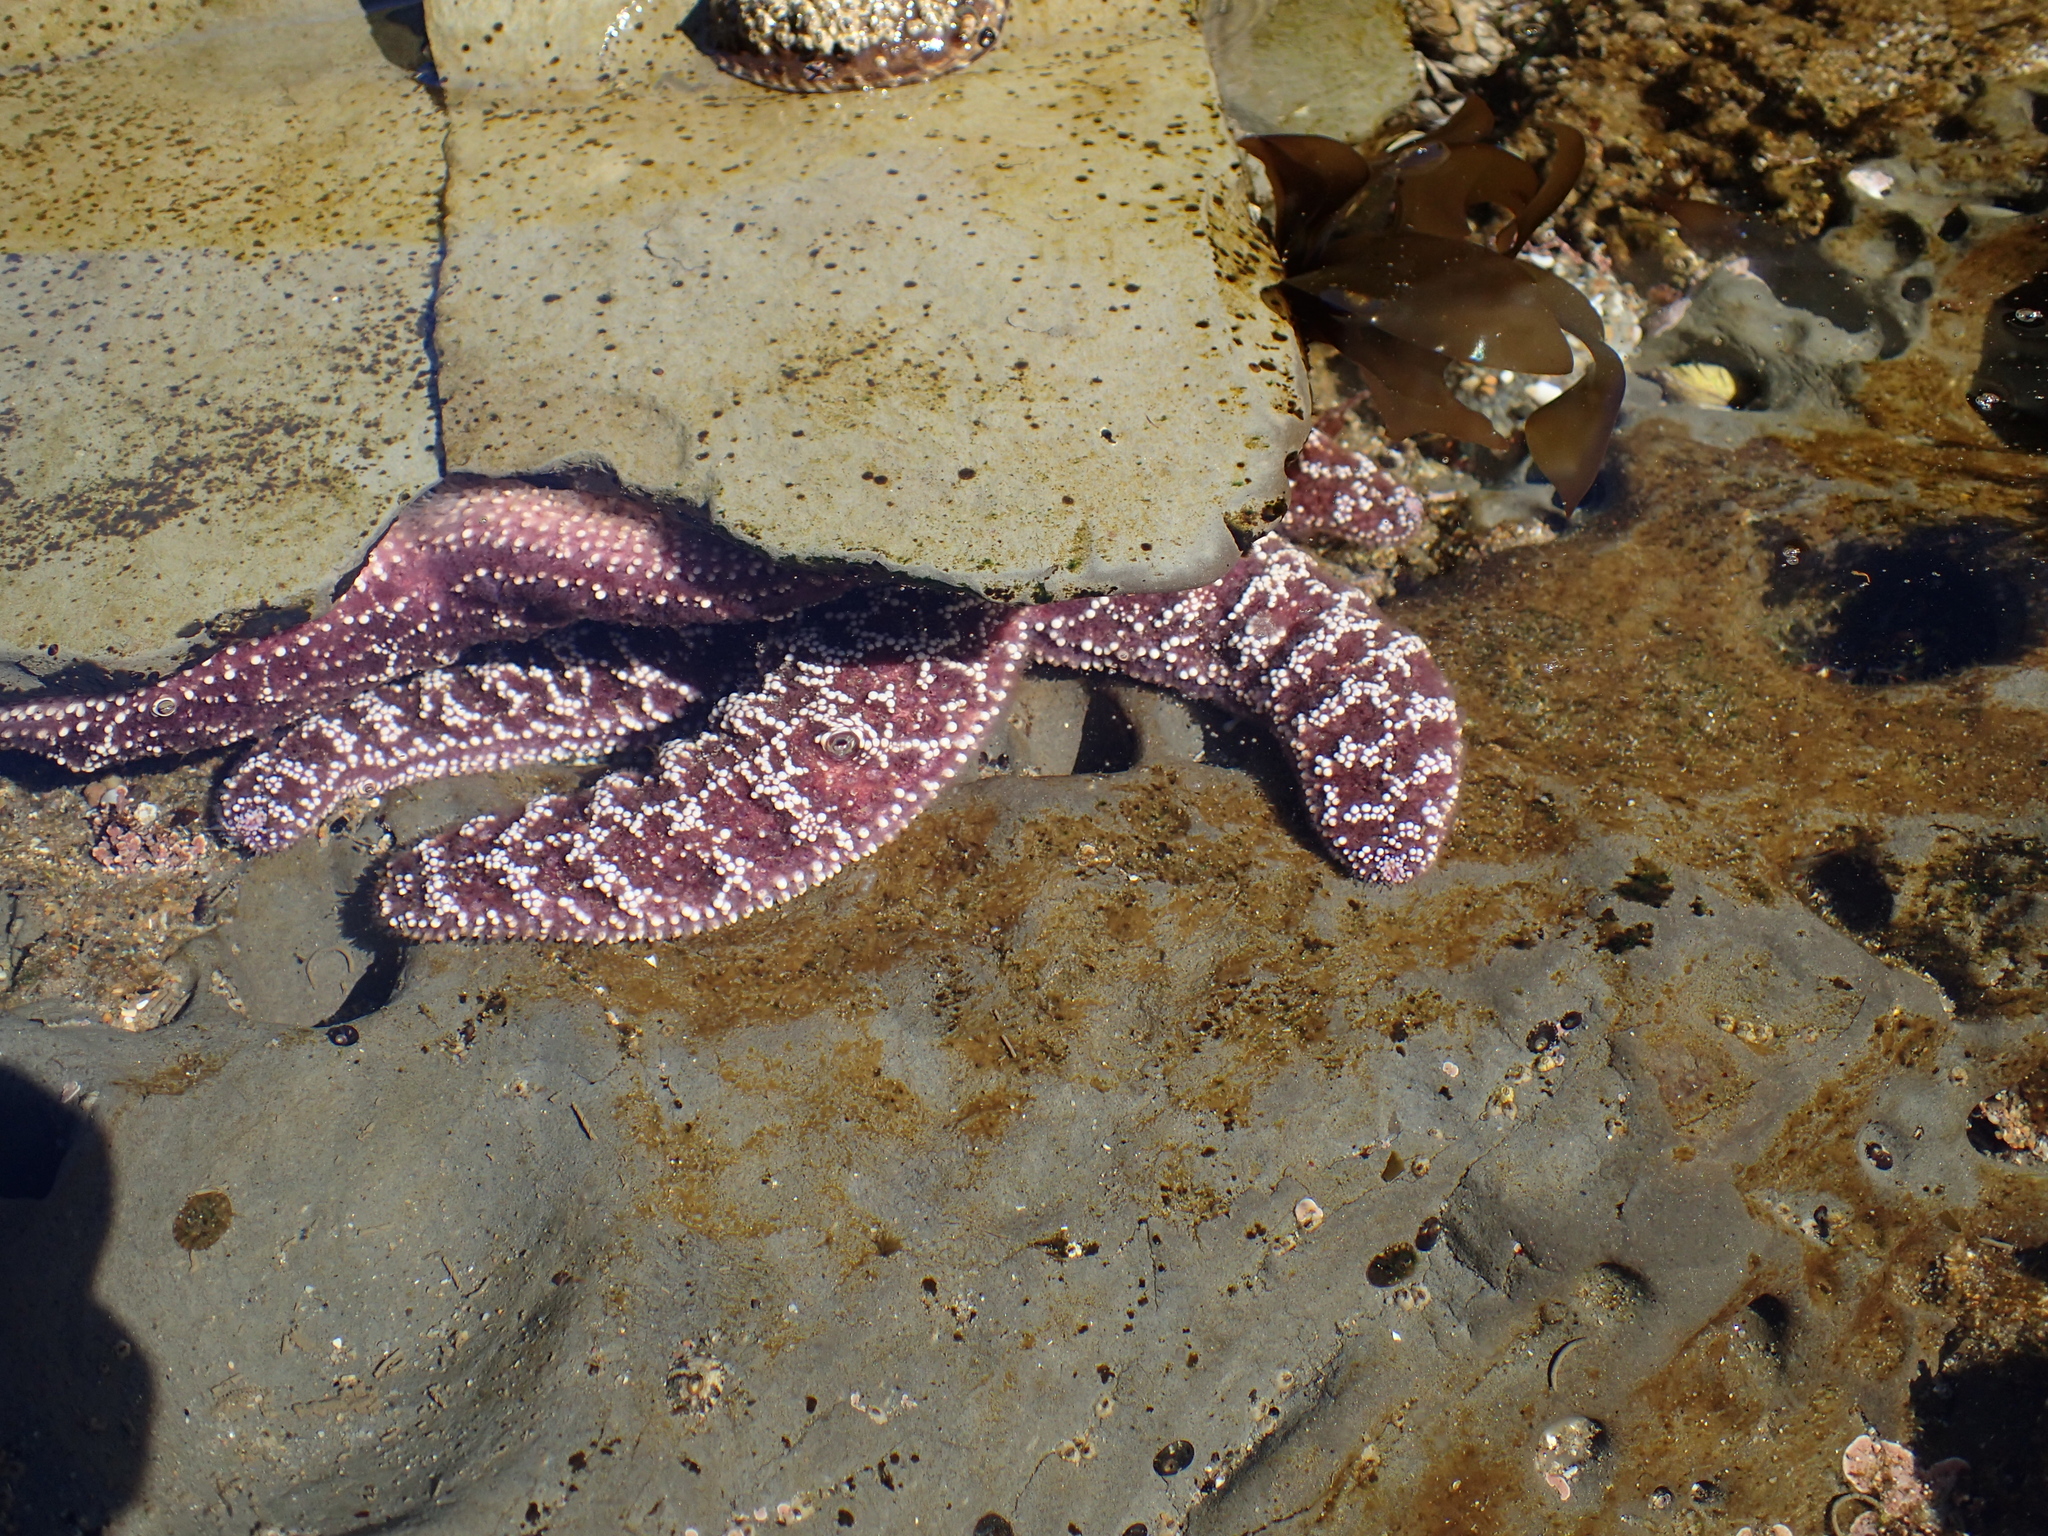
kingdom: Animalia
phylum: Echinodermata
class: Asteroidea
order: Forcipulatida
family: Asteriidae
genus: Pisaster
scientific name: Pisaster ochraceus
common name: Ochre stars
